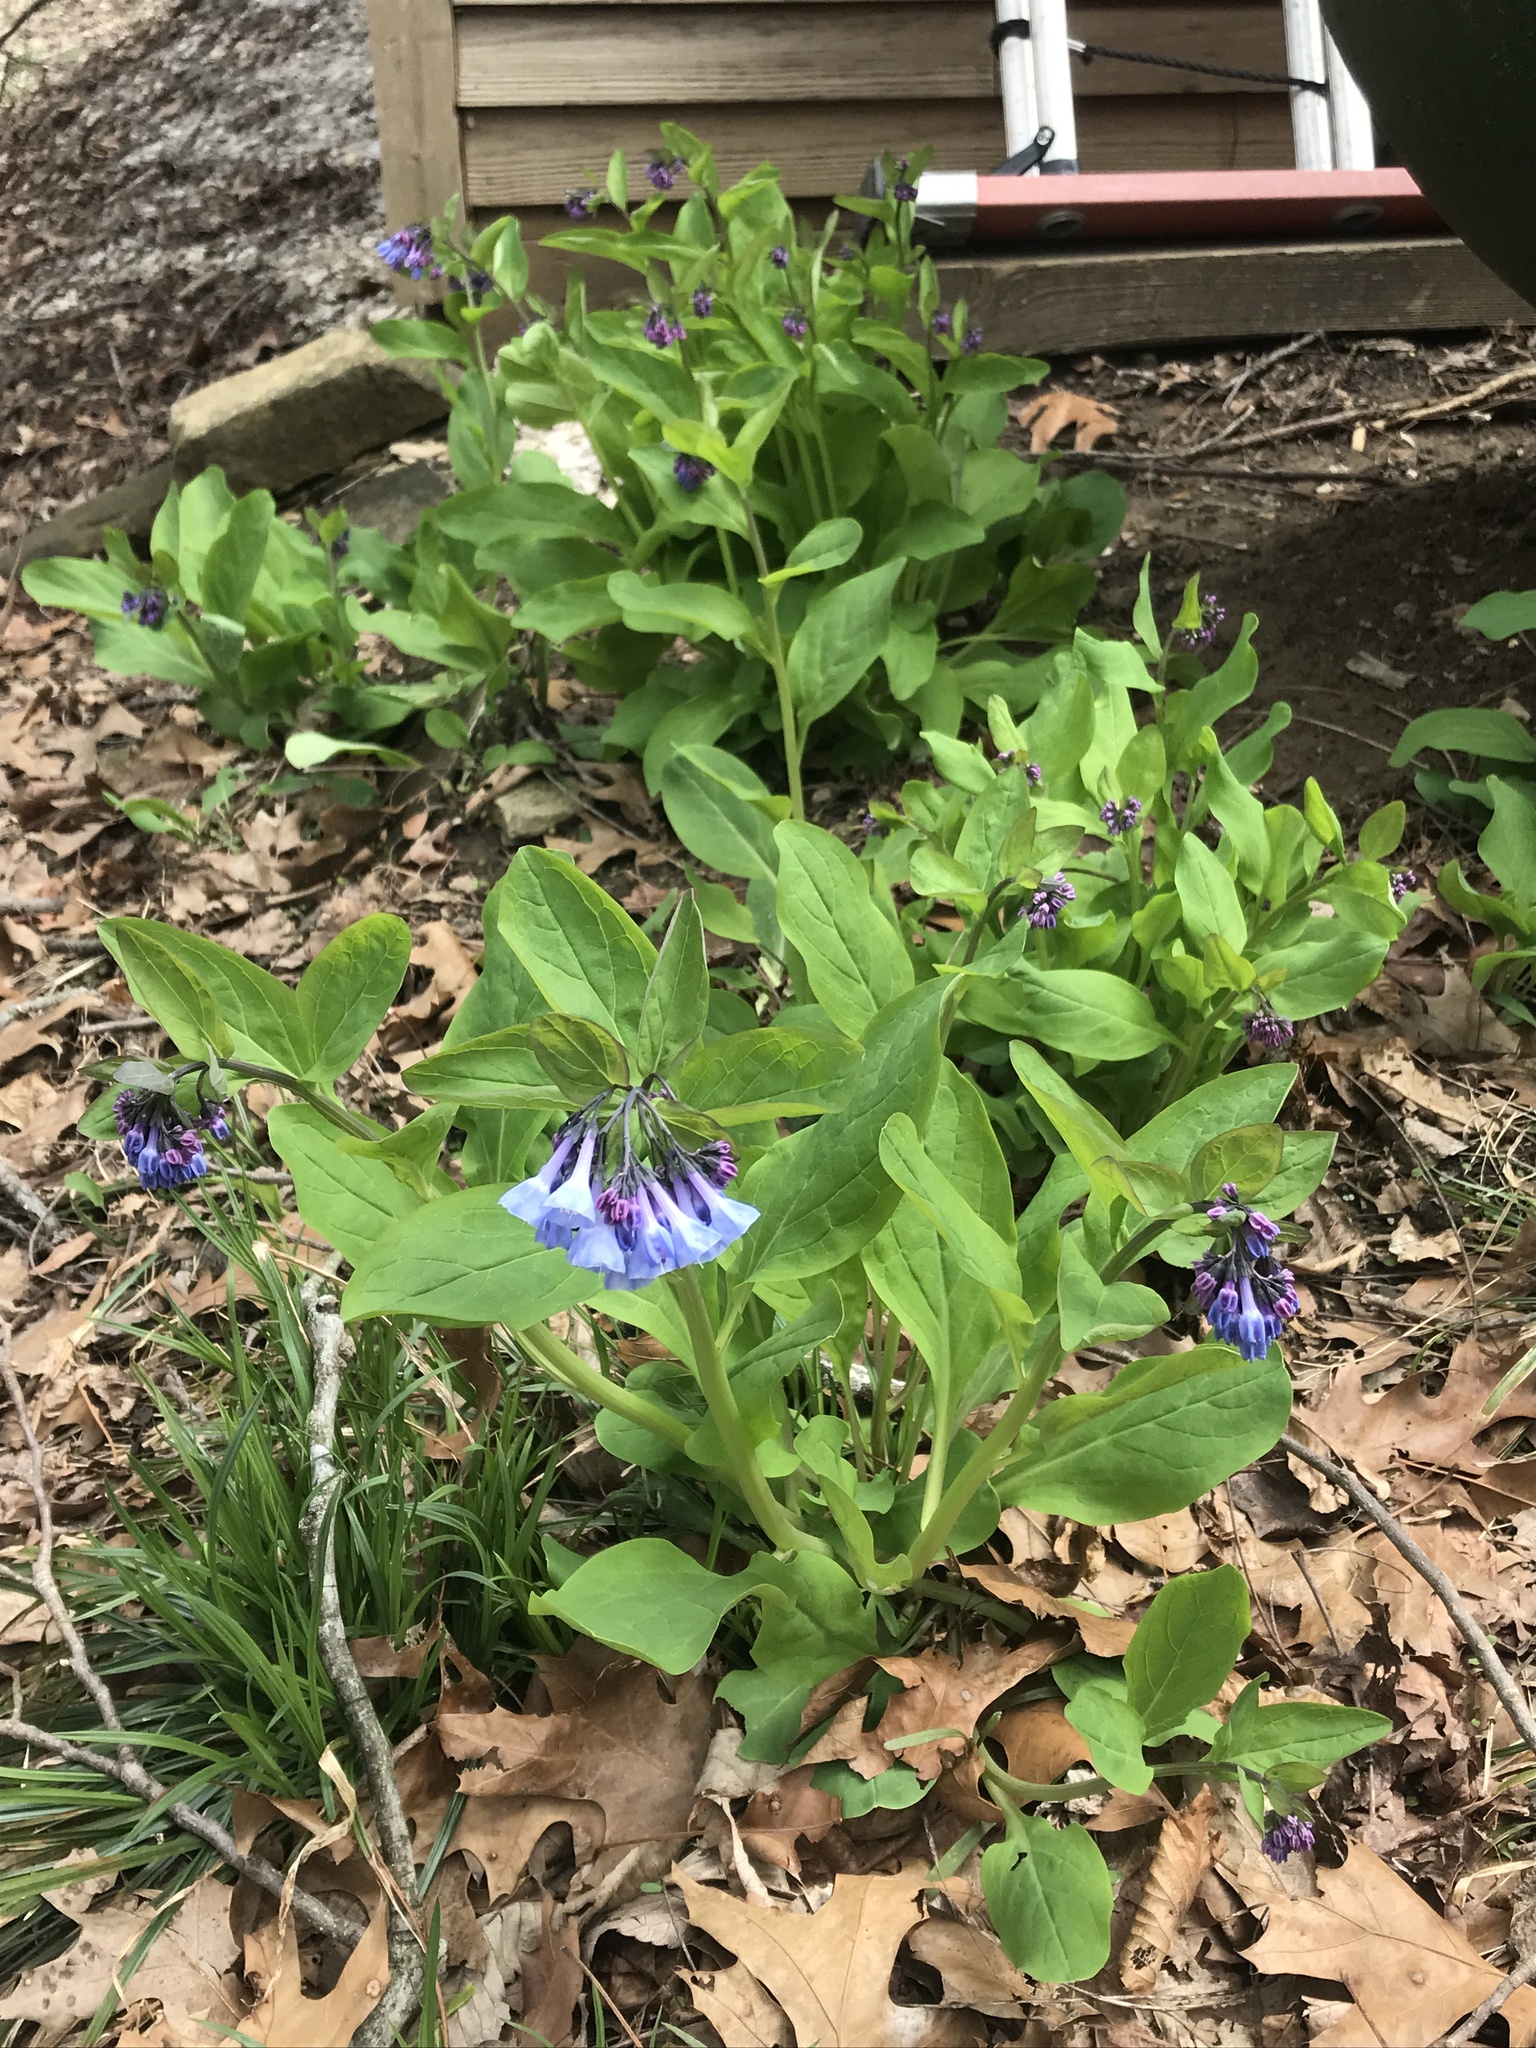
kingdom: Plantae
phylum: Tracheophyta
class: Magnoliopsida
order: Boraginales
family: Boraginaceae
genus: Mertensia
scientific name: Mertensia virginica
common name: Virginia bluebells
